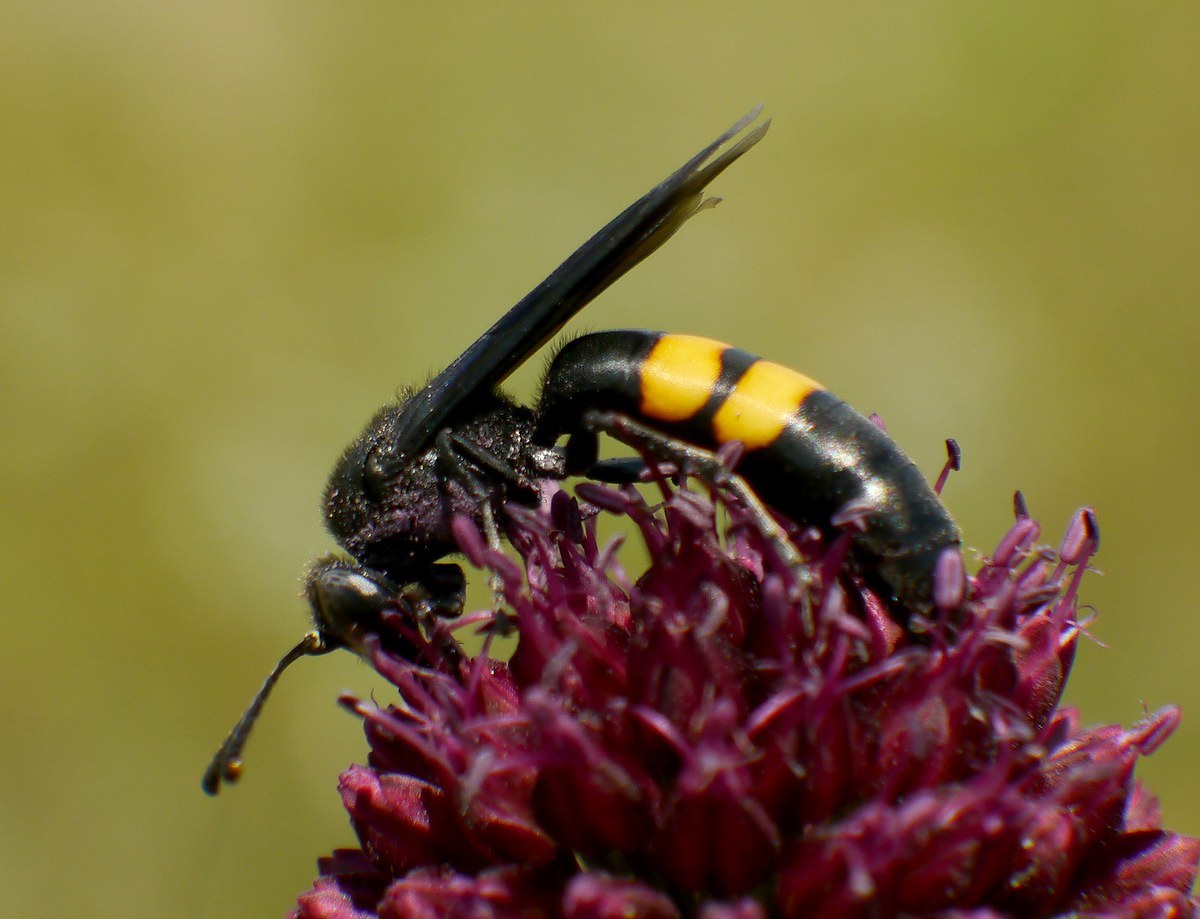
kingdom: Animalia
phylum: Arthropoda
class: Insecta
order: Hymenoptera
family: Crabronidae
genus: Stizoides
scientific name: Stizoides tridentatus
